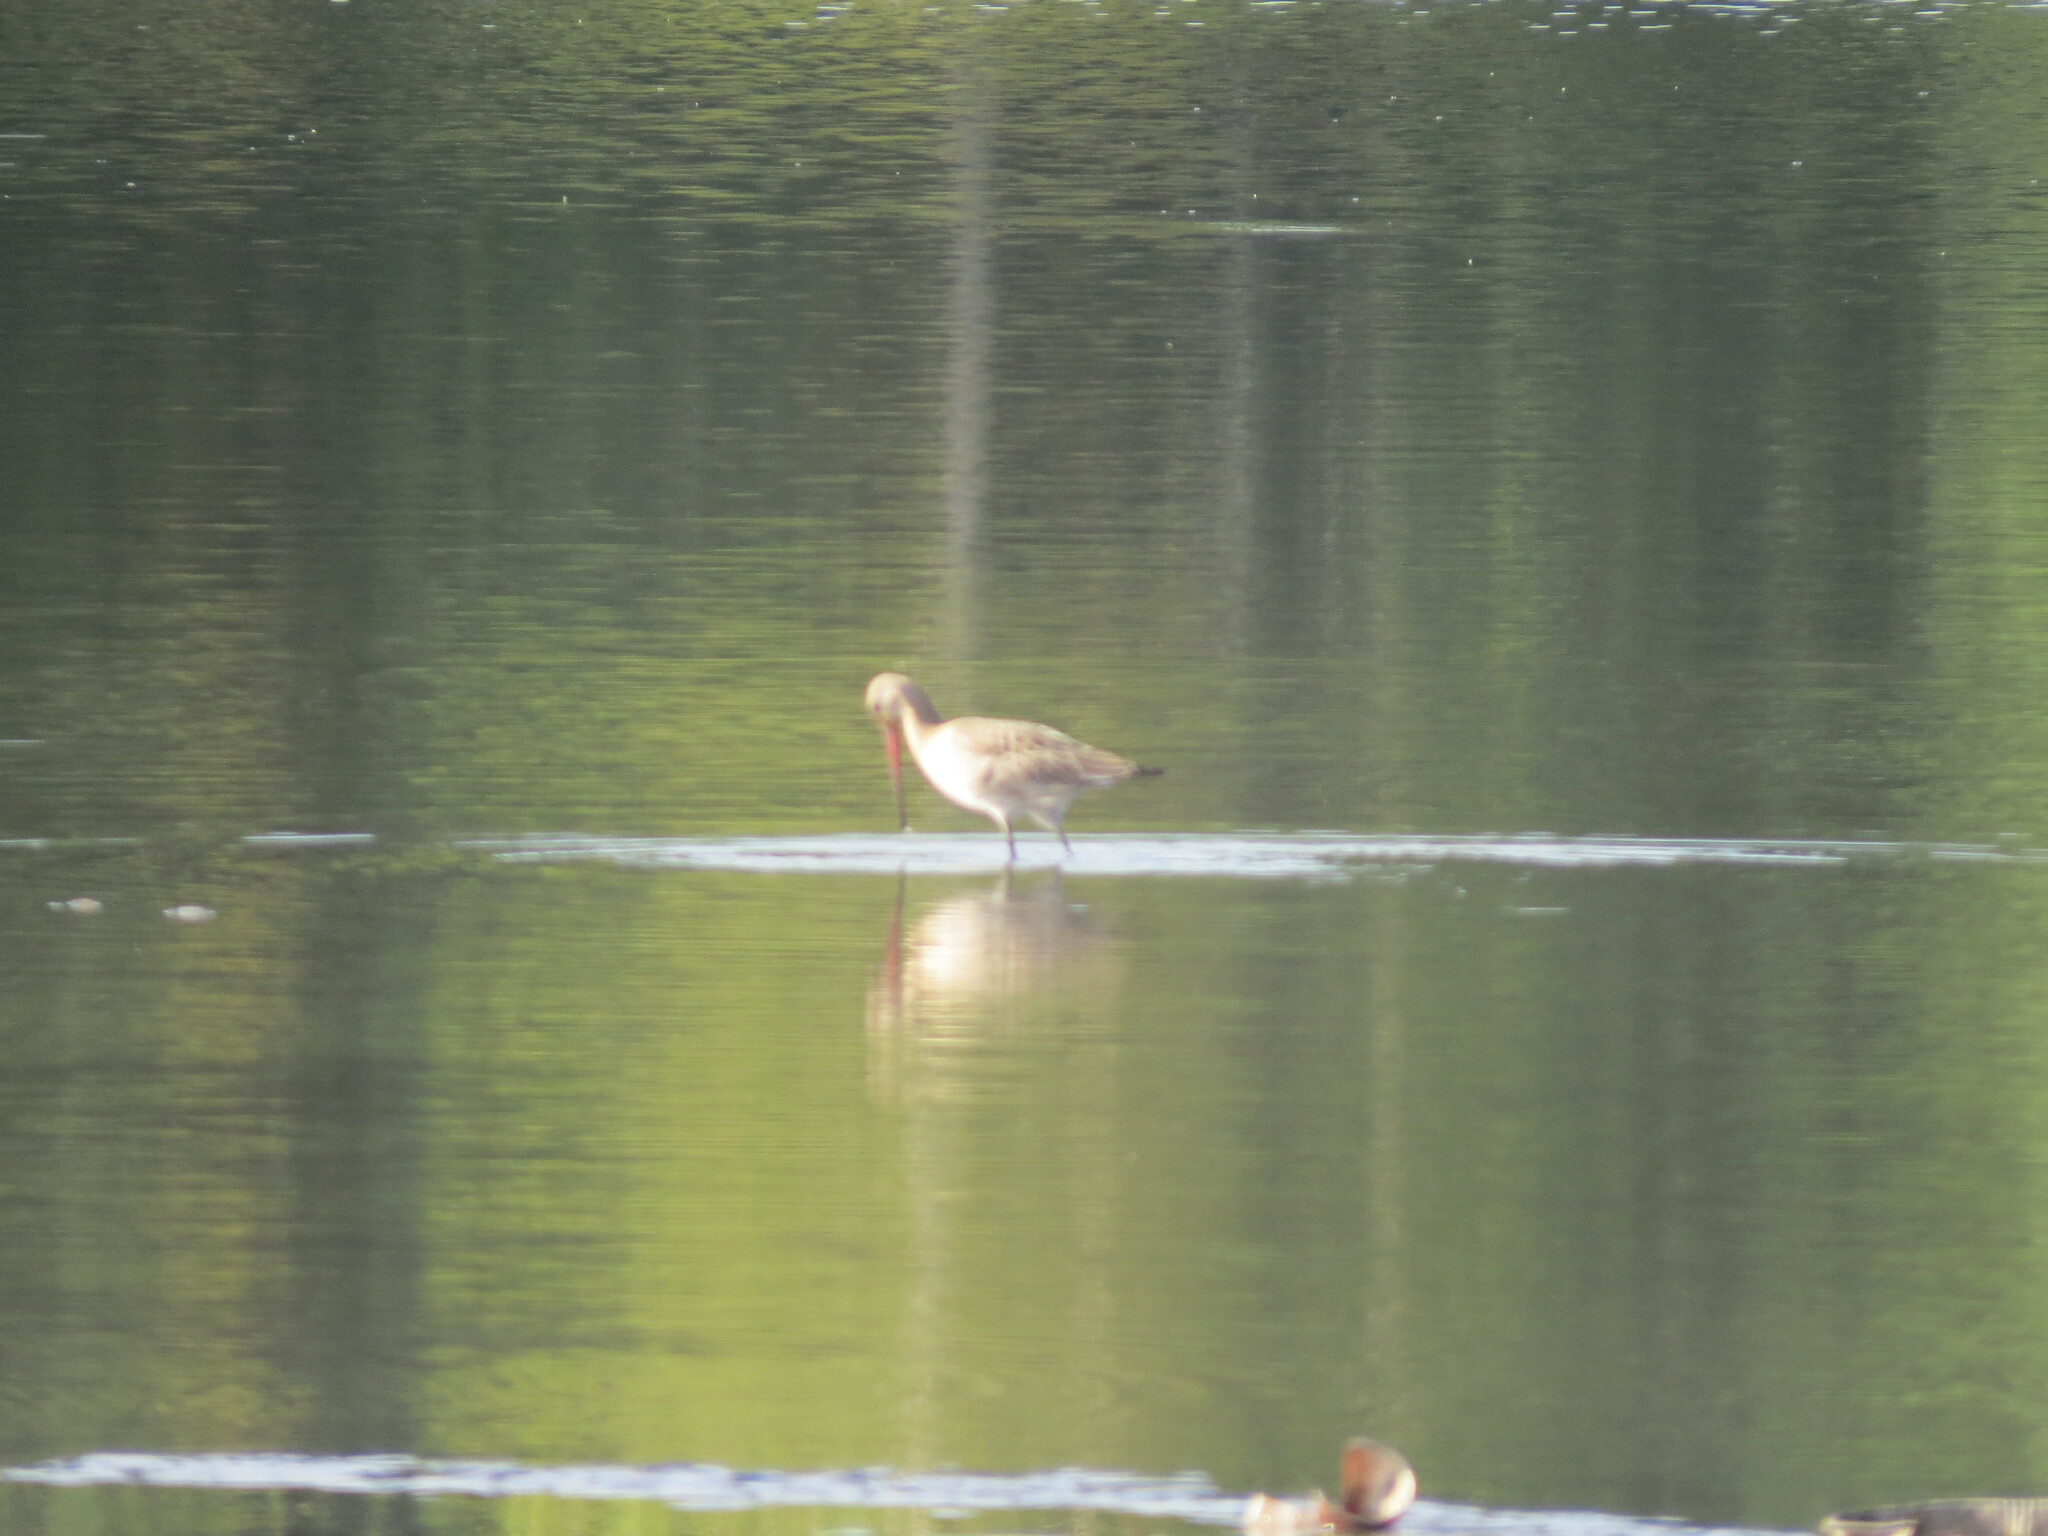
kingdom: Animalia
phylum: Chordata
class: Aves
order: Charadriiformes
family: Scolopacidae
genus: Limosa
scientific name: Limosa limosa
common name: Black-tailed godwit
